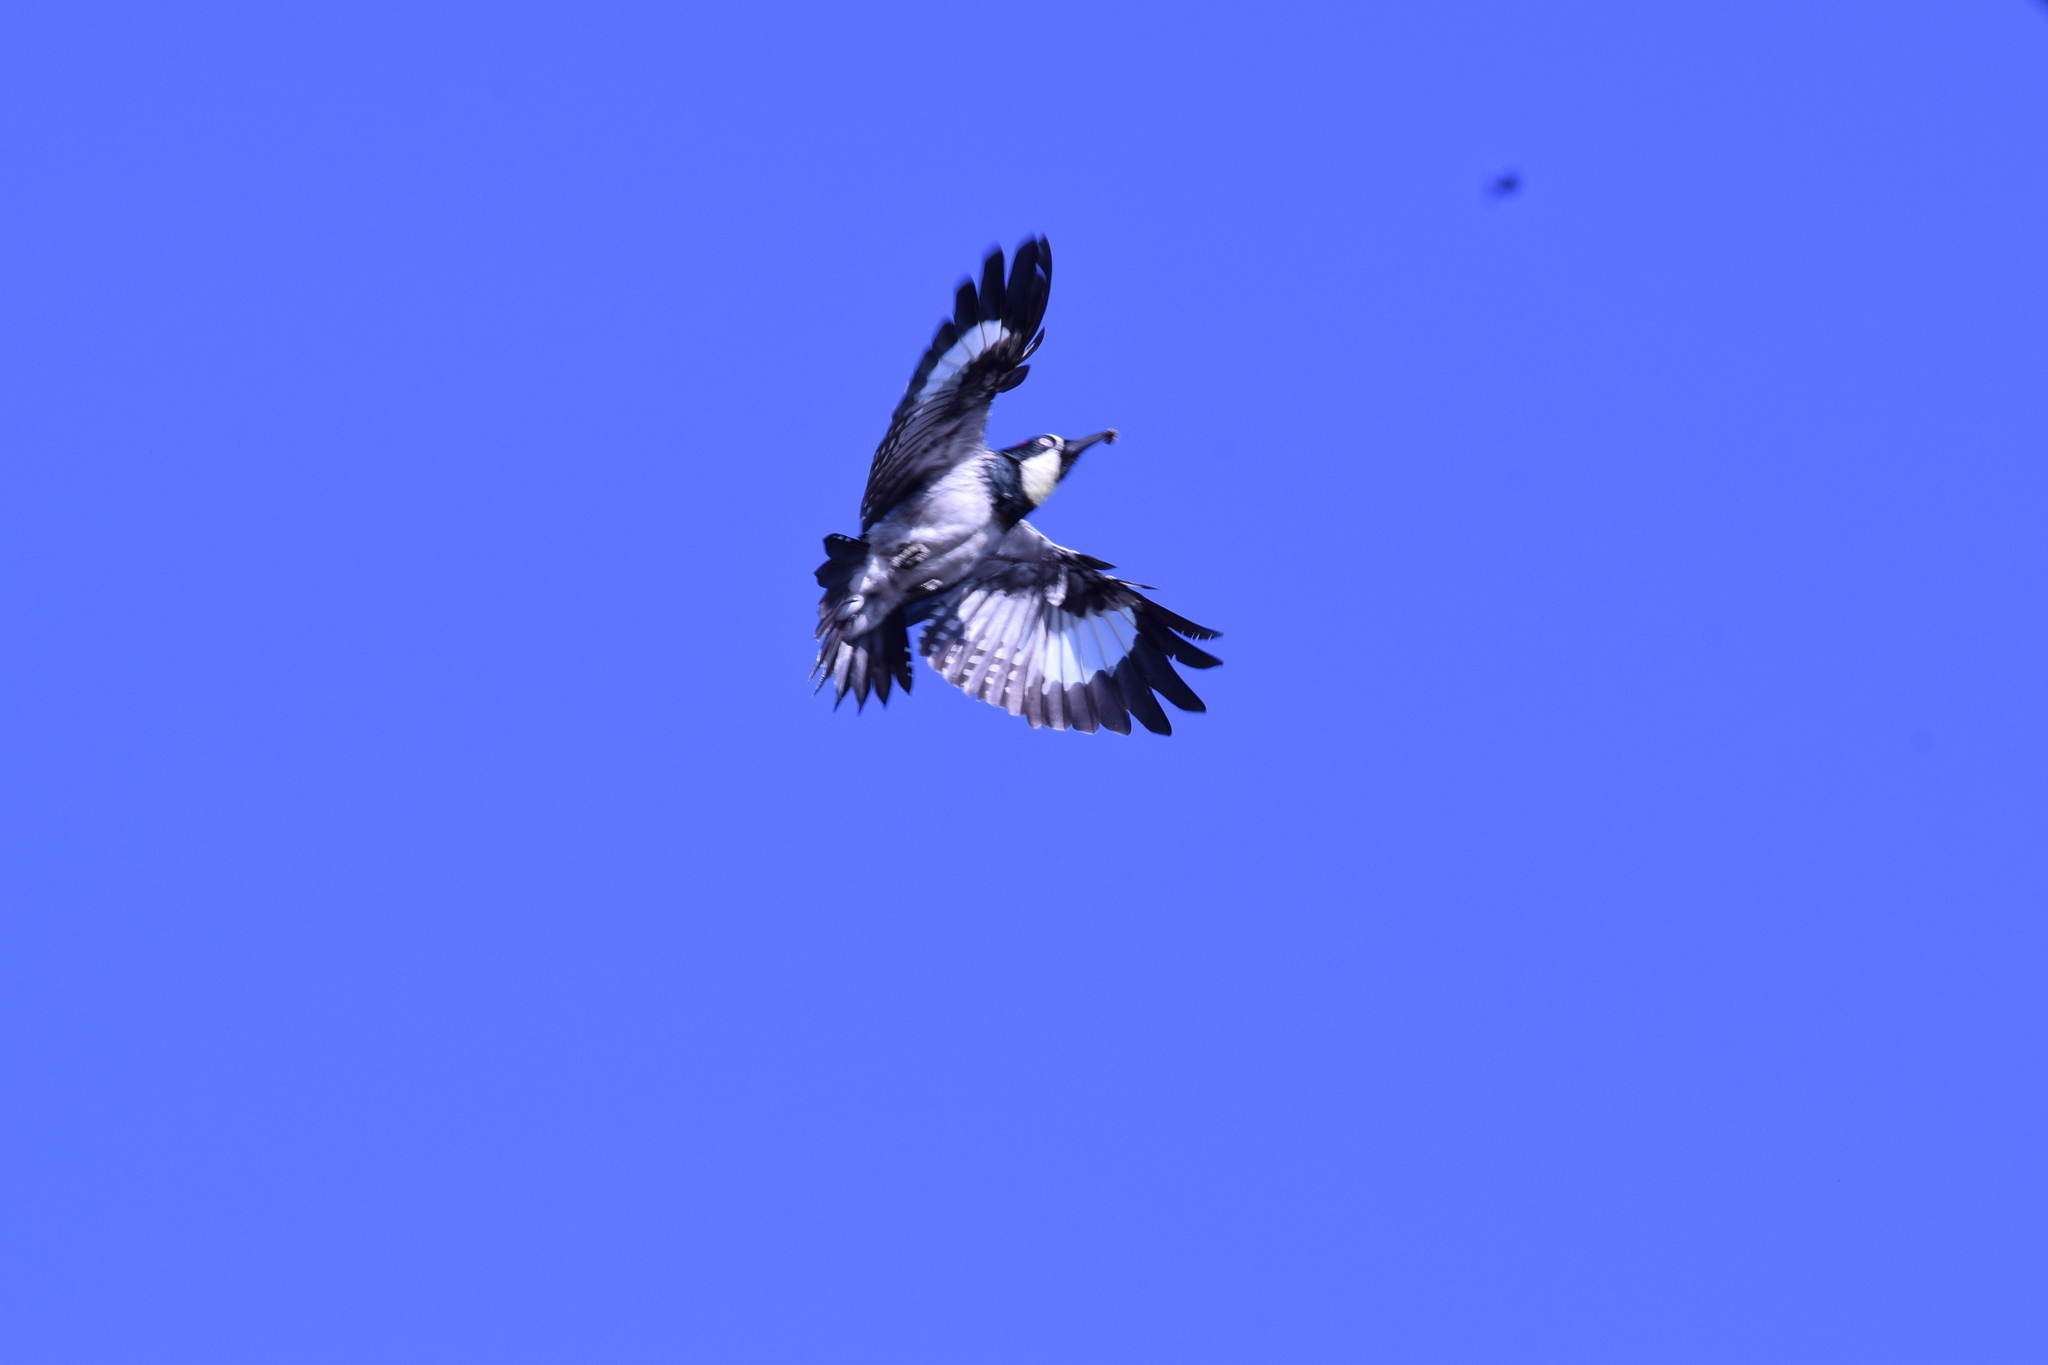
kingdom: Animalia
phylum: Chordata
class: Aves
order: Piciformes
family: Picidae
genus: Melanerpes
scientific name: Melanerpes formicivorus
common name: Acorn woodpecker
